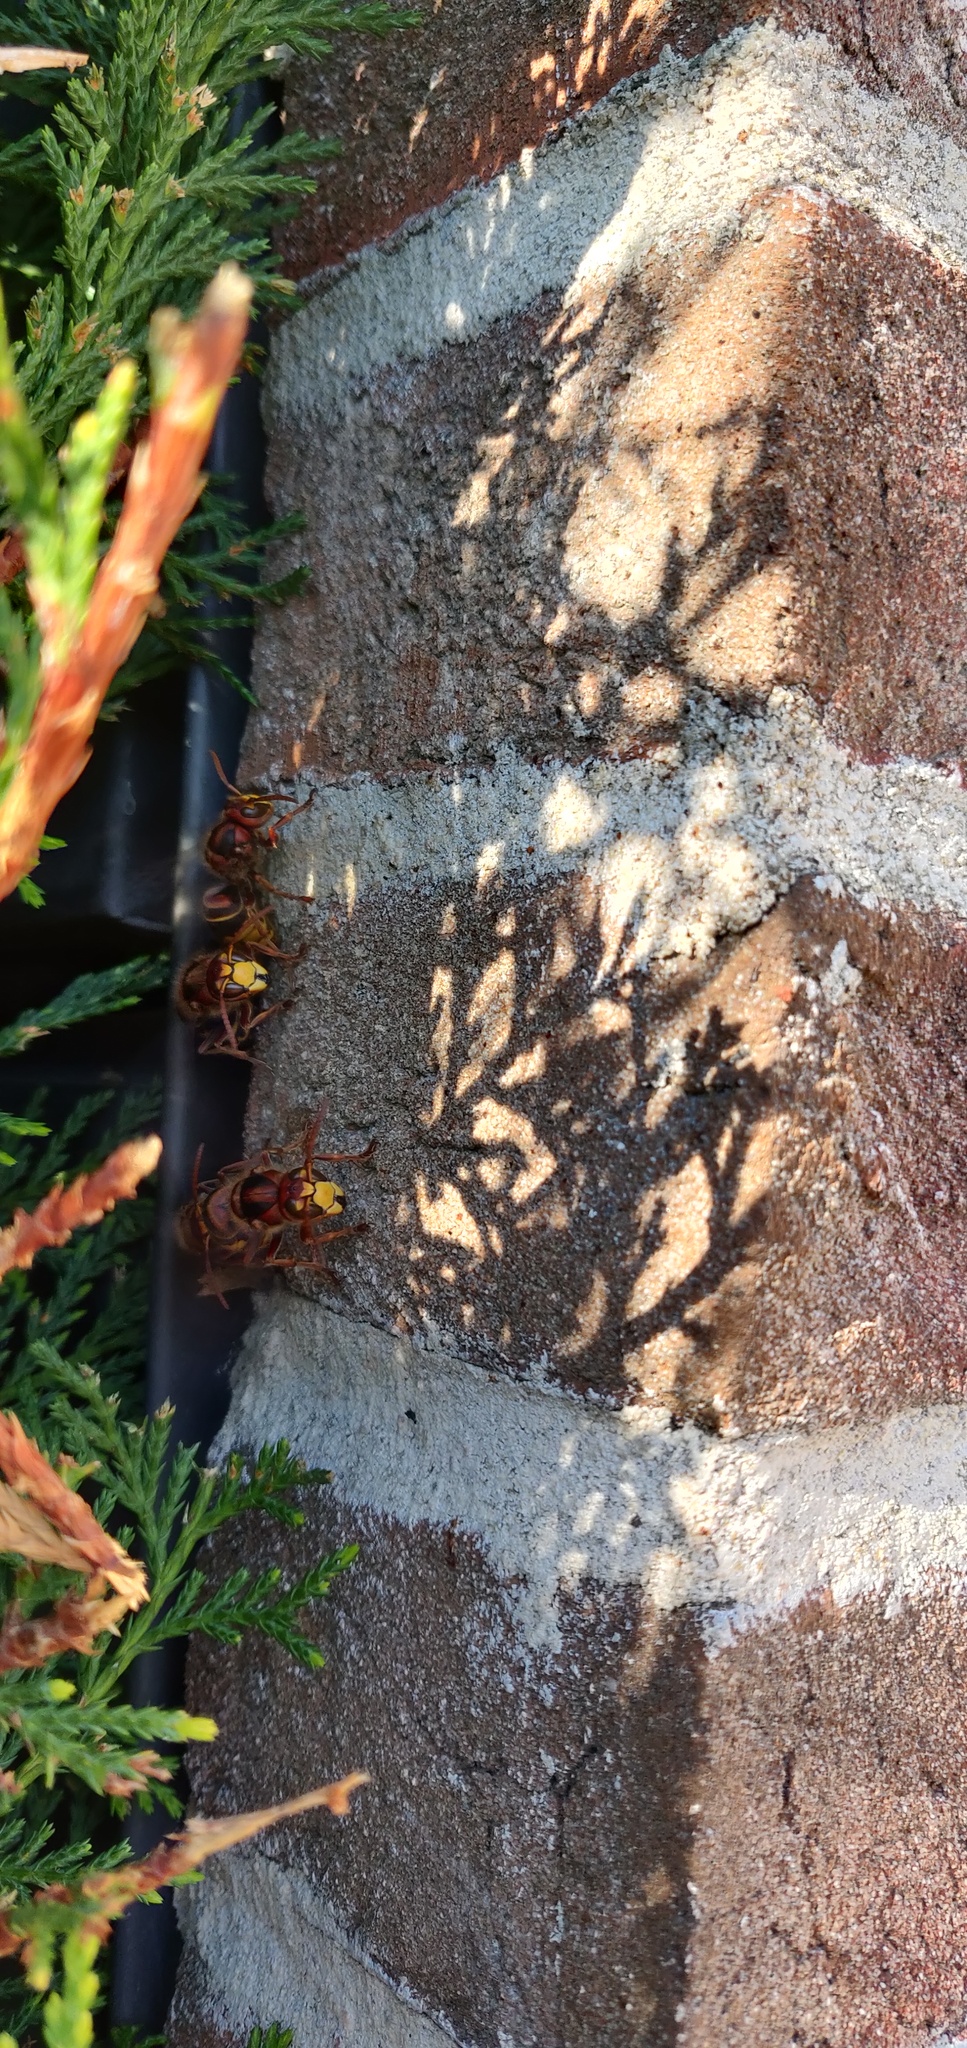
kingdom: Animalia
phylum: Arthropoda
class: Insecta
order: Hymenoptera
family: Vespidae
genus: Vespa
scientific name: Vespa crabro
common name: Hornet
